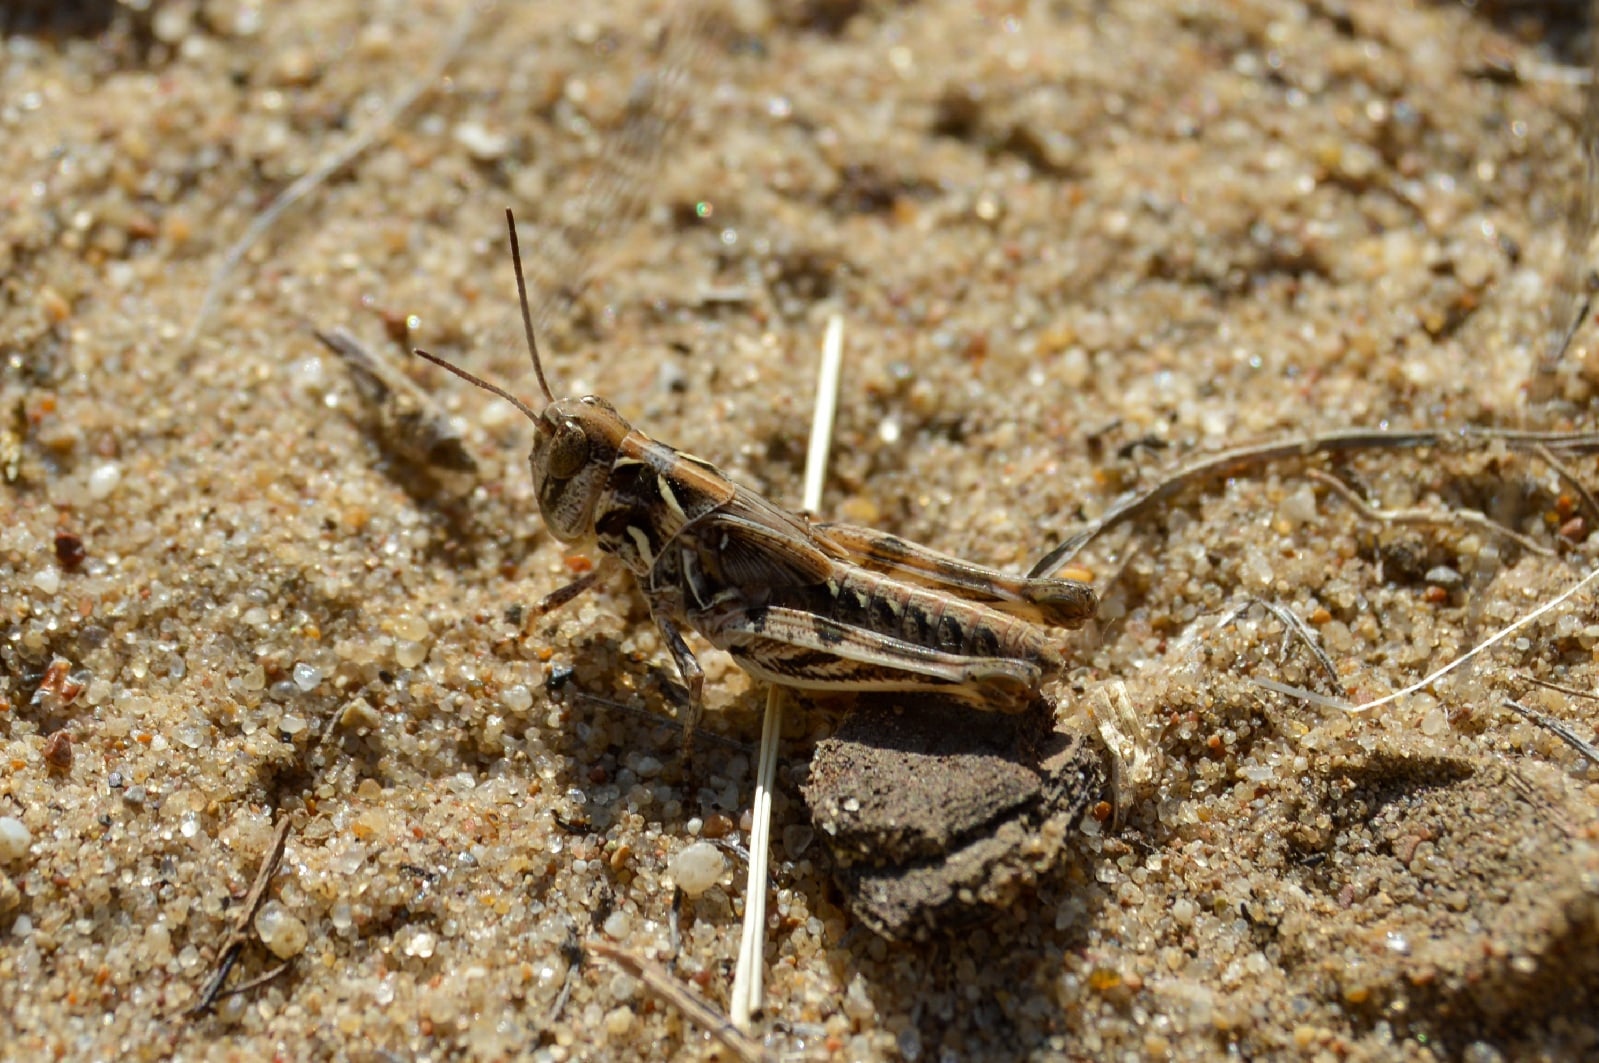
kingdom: Animalia
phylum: Arthropoda
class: Insecta
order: Orthoptera
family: Acrididae
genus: Dociostaurus
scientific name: Dociostaurus brevicollis
